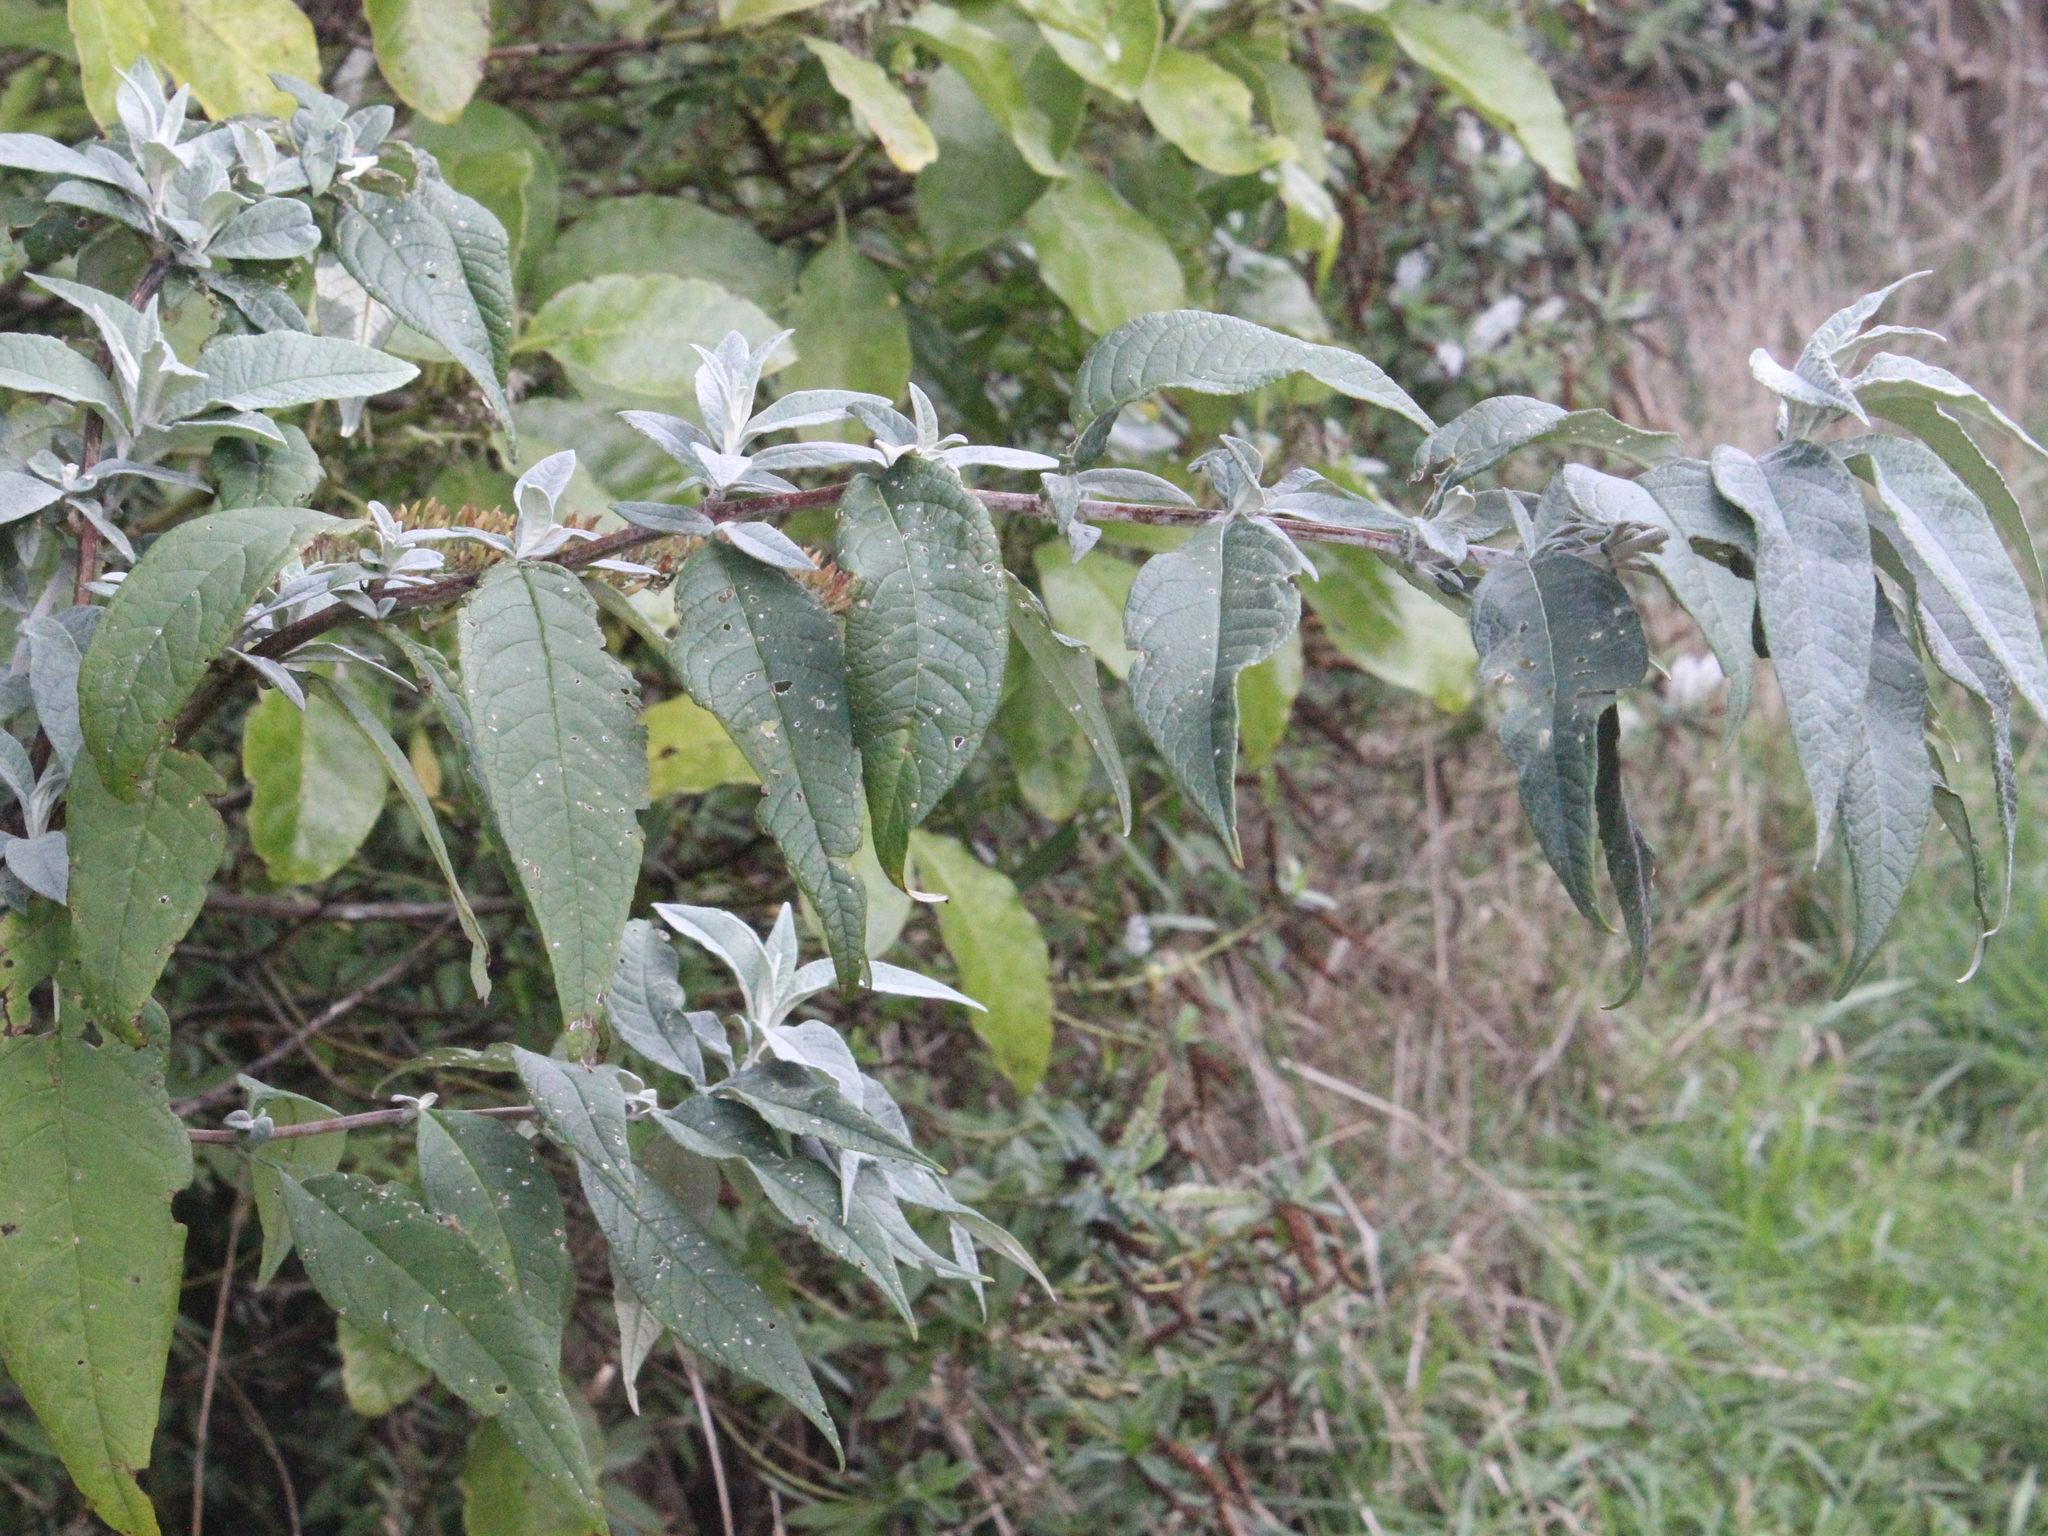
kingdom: Plantae
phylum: Tracheophyta
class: Magnoliopsida
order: Lamiales
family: Scrophulariaceae
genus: Buddleja
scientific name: Buddleja davidii
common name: Butterfly-bush
